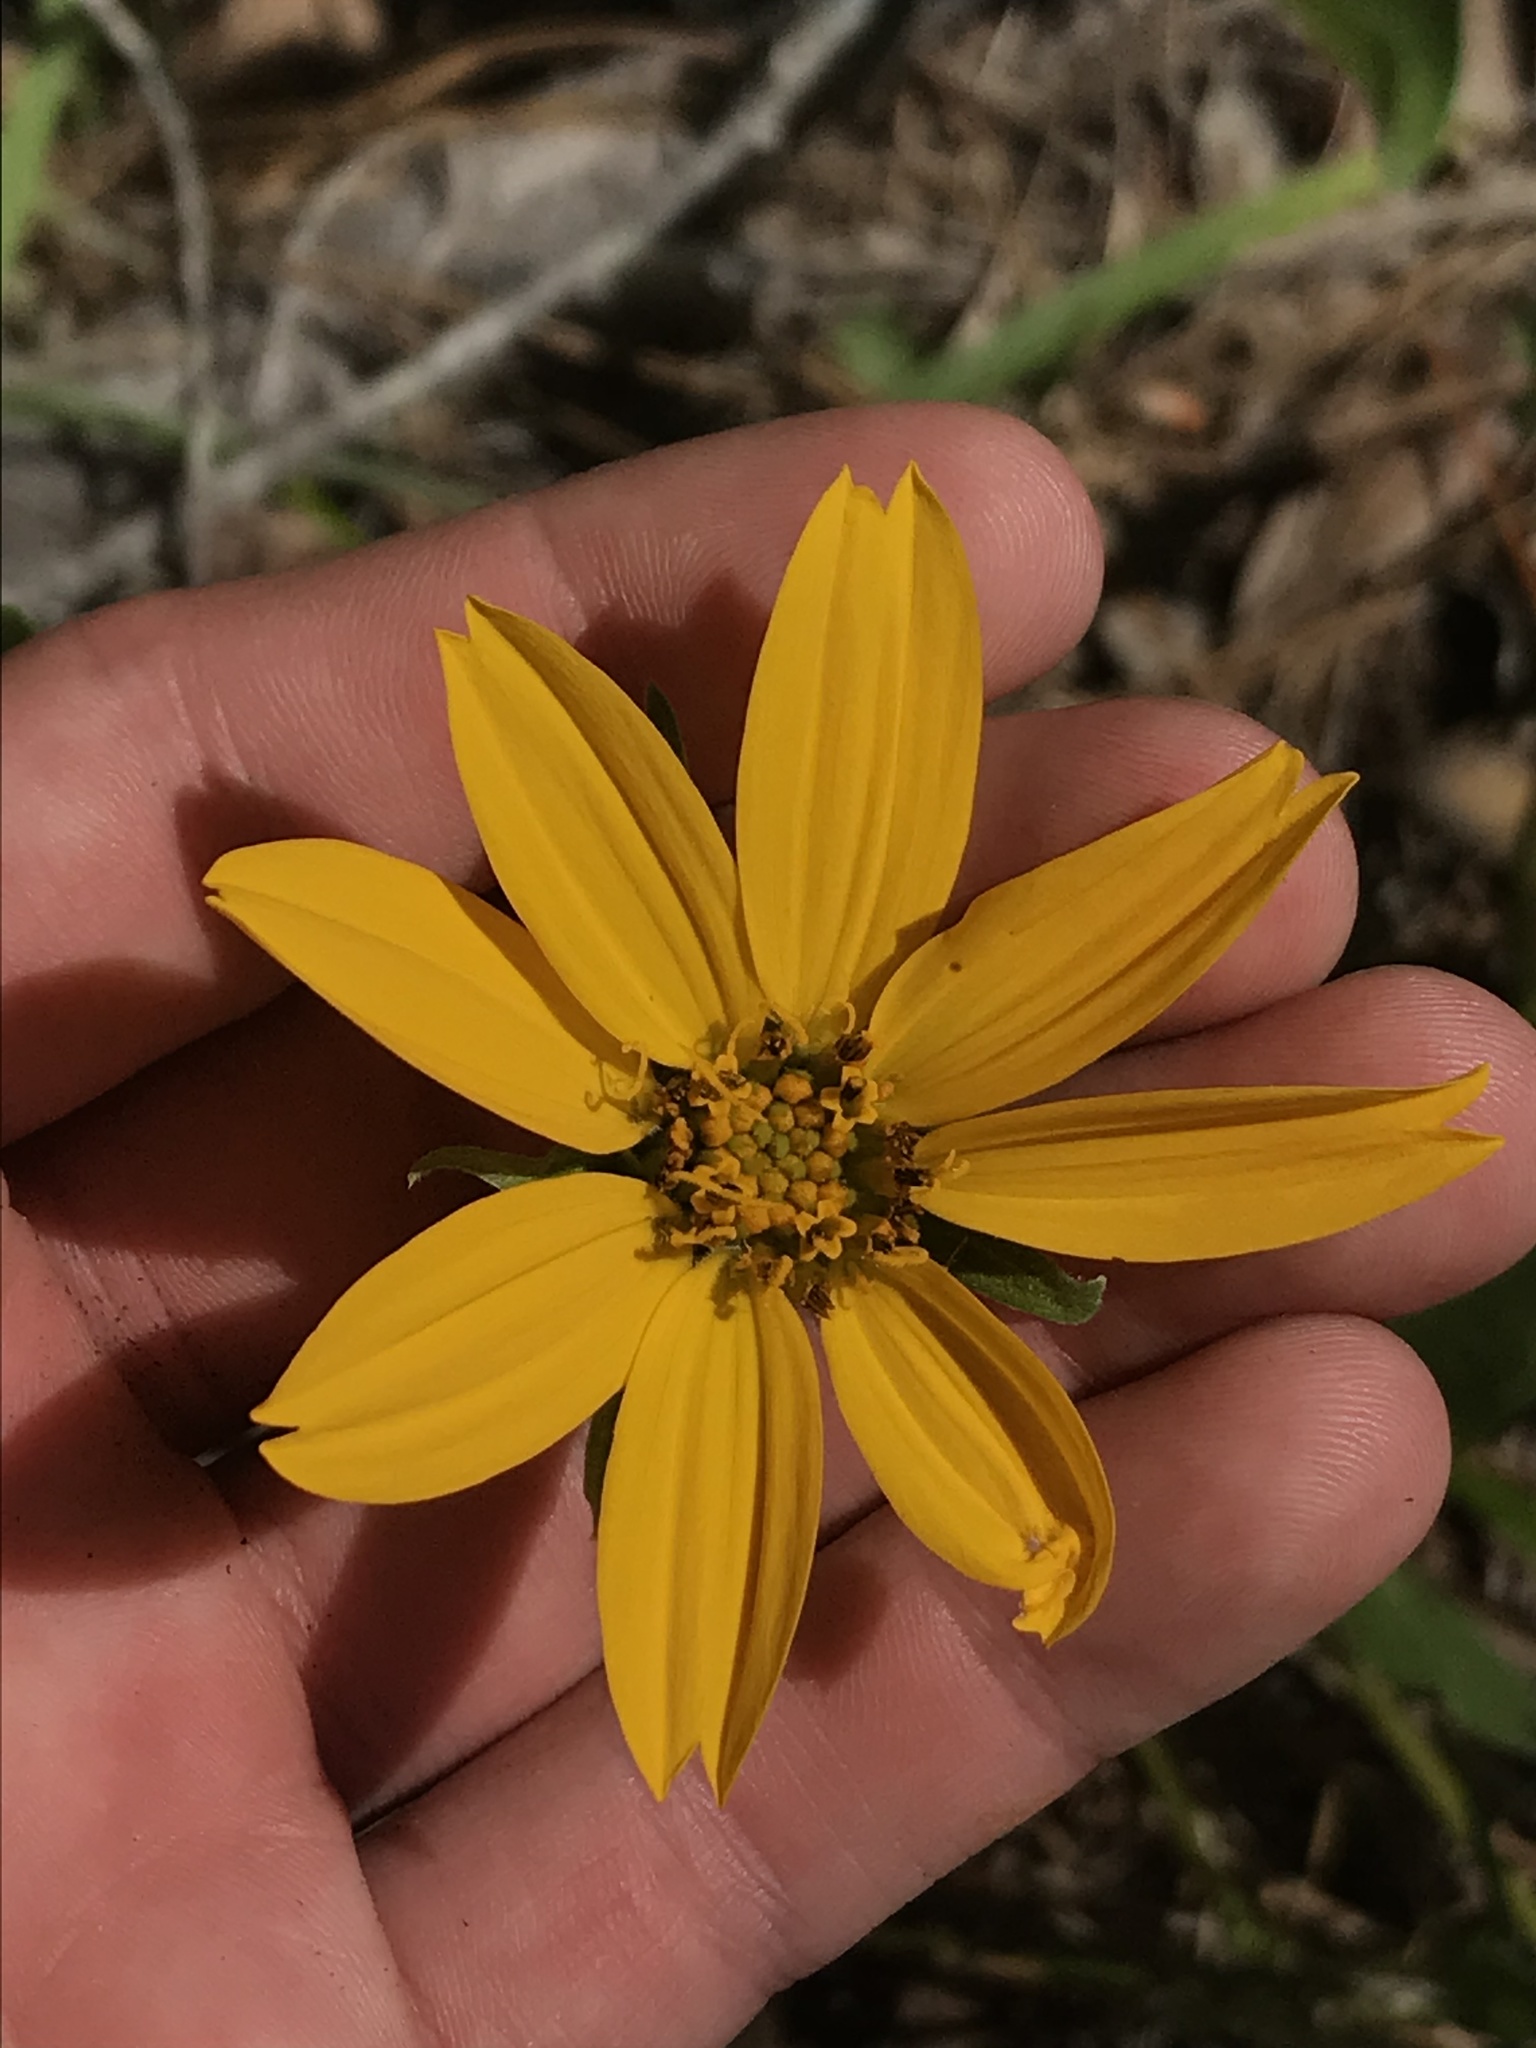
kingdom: Plantae
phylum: Tracheophyta
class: Magnoliopsida
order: Asterales
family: Asteraceae
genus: Balsamorhiza
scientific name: Balsamorhiza deltoidea
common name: Deltoid balsamroot
